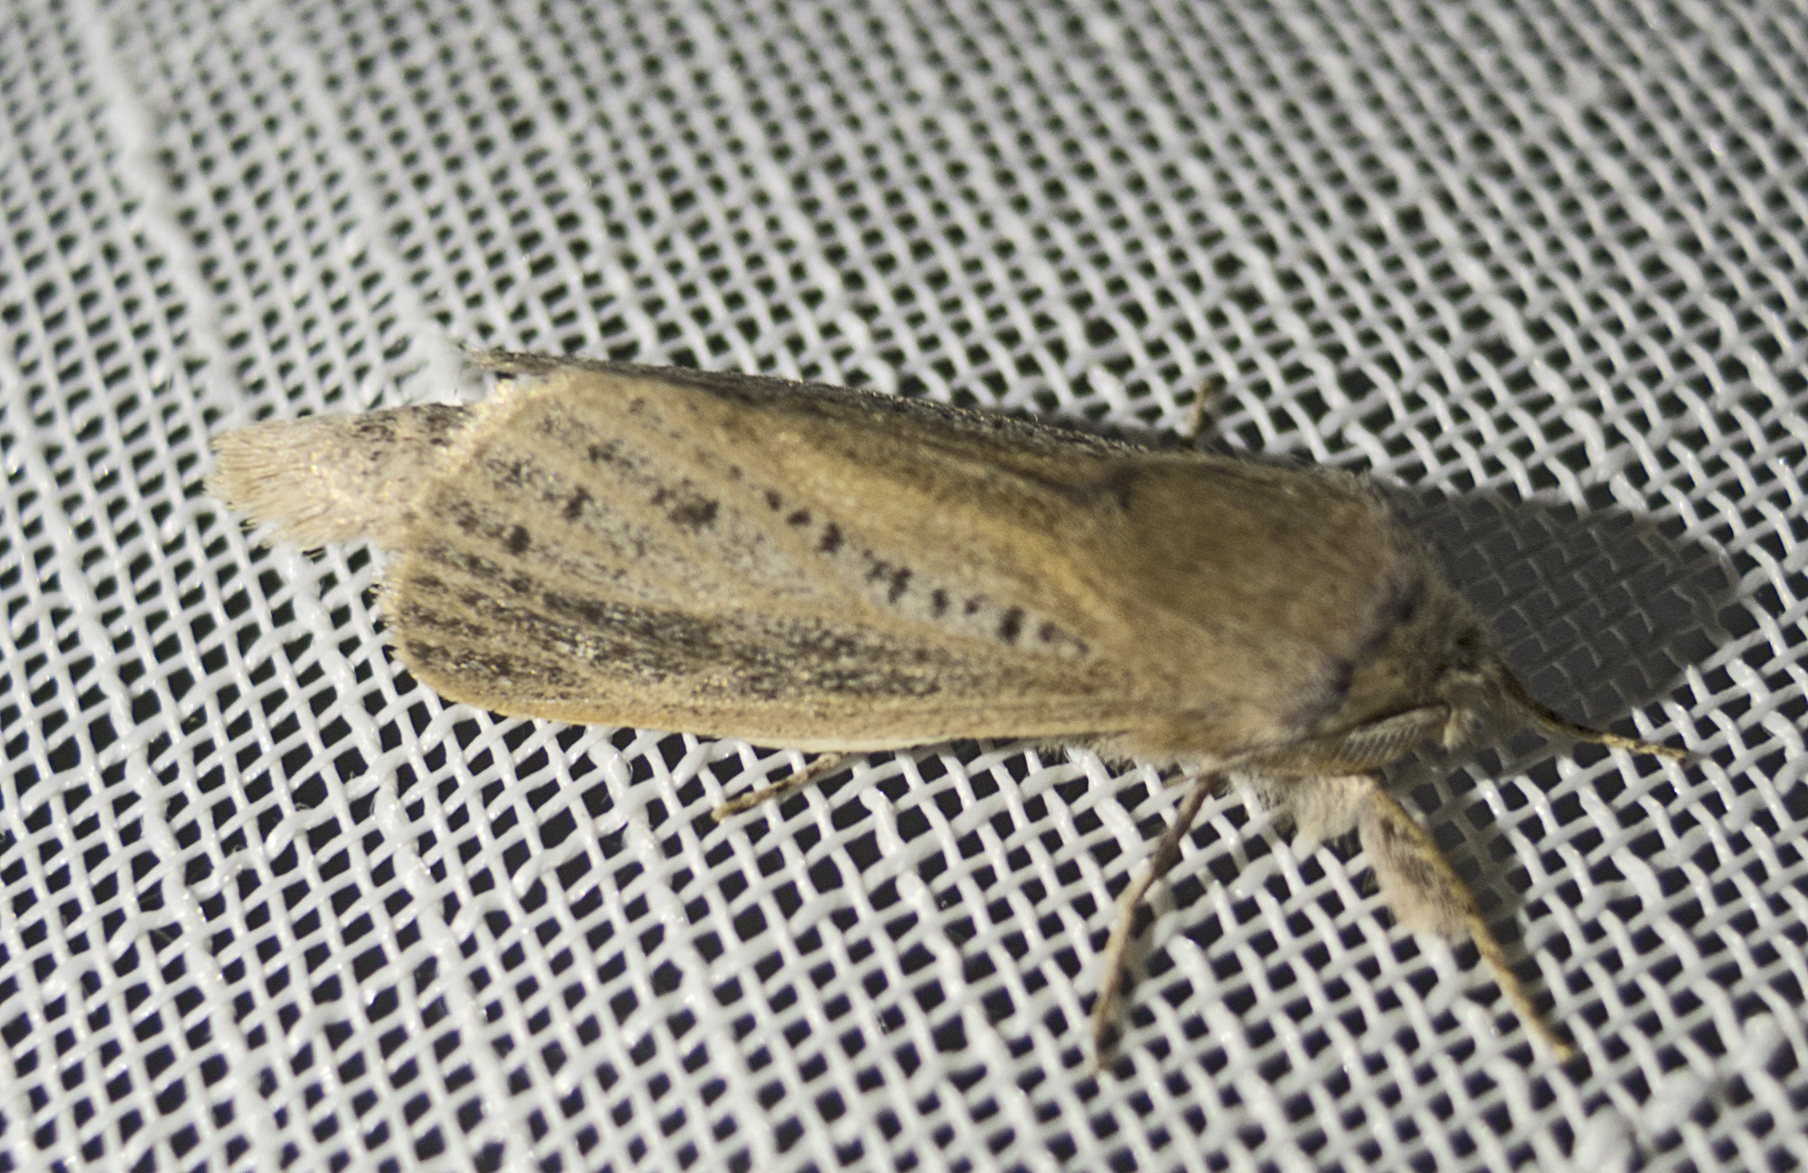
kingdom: Animalia
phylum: Arthropoda
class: Insecta
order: Lepidoptera
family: Cossidae
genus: Phragmataecia
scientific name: Phragmataecia castaneae
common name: Reed leopard
